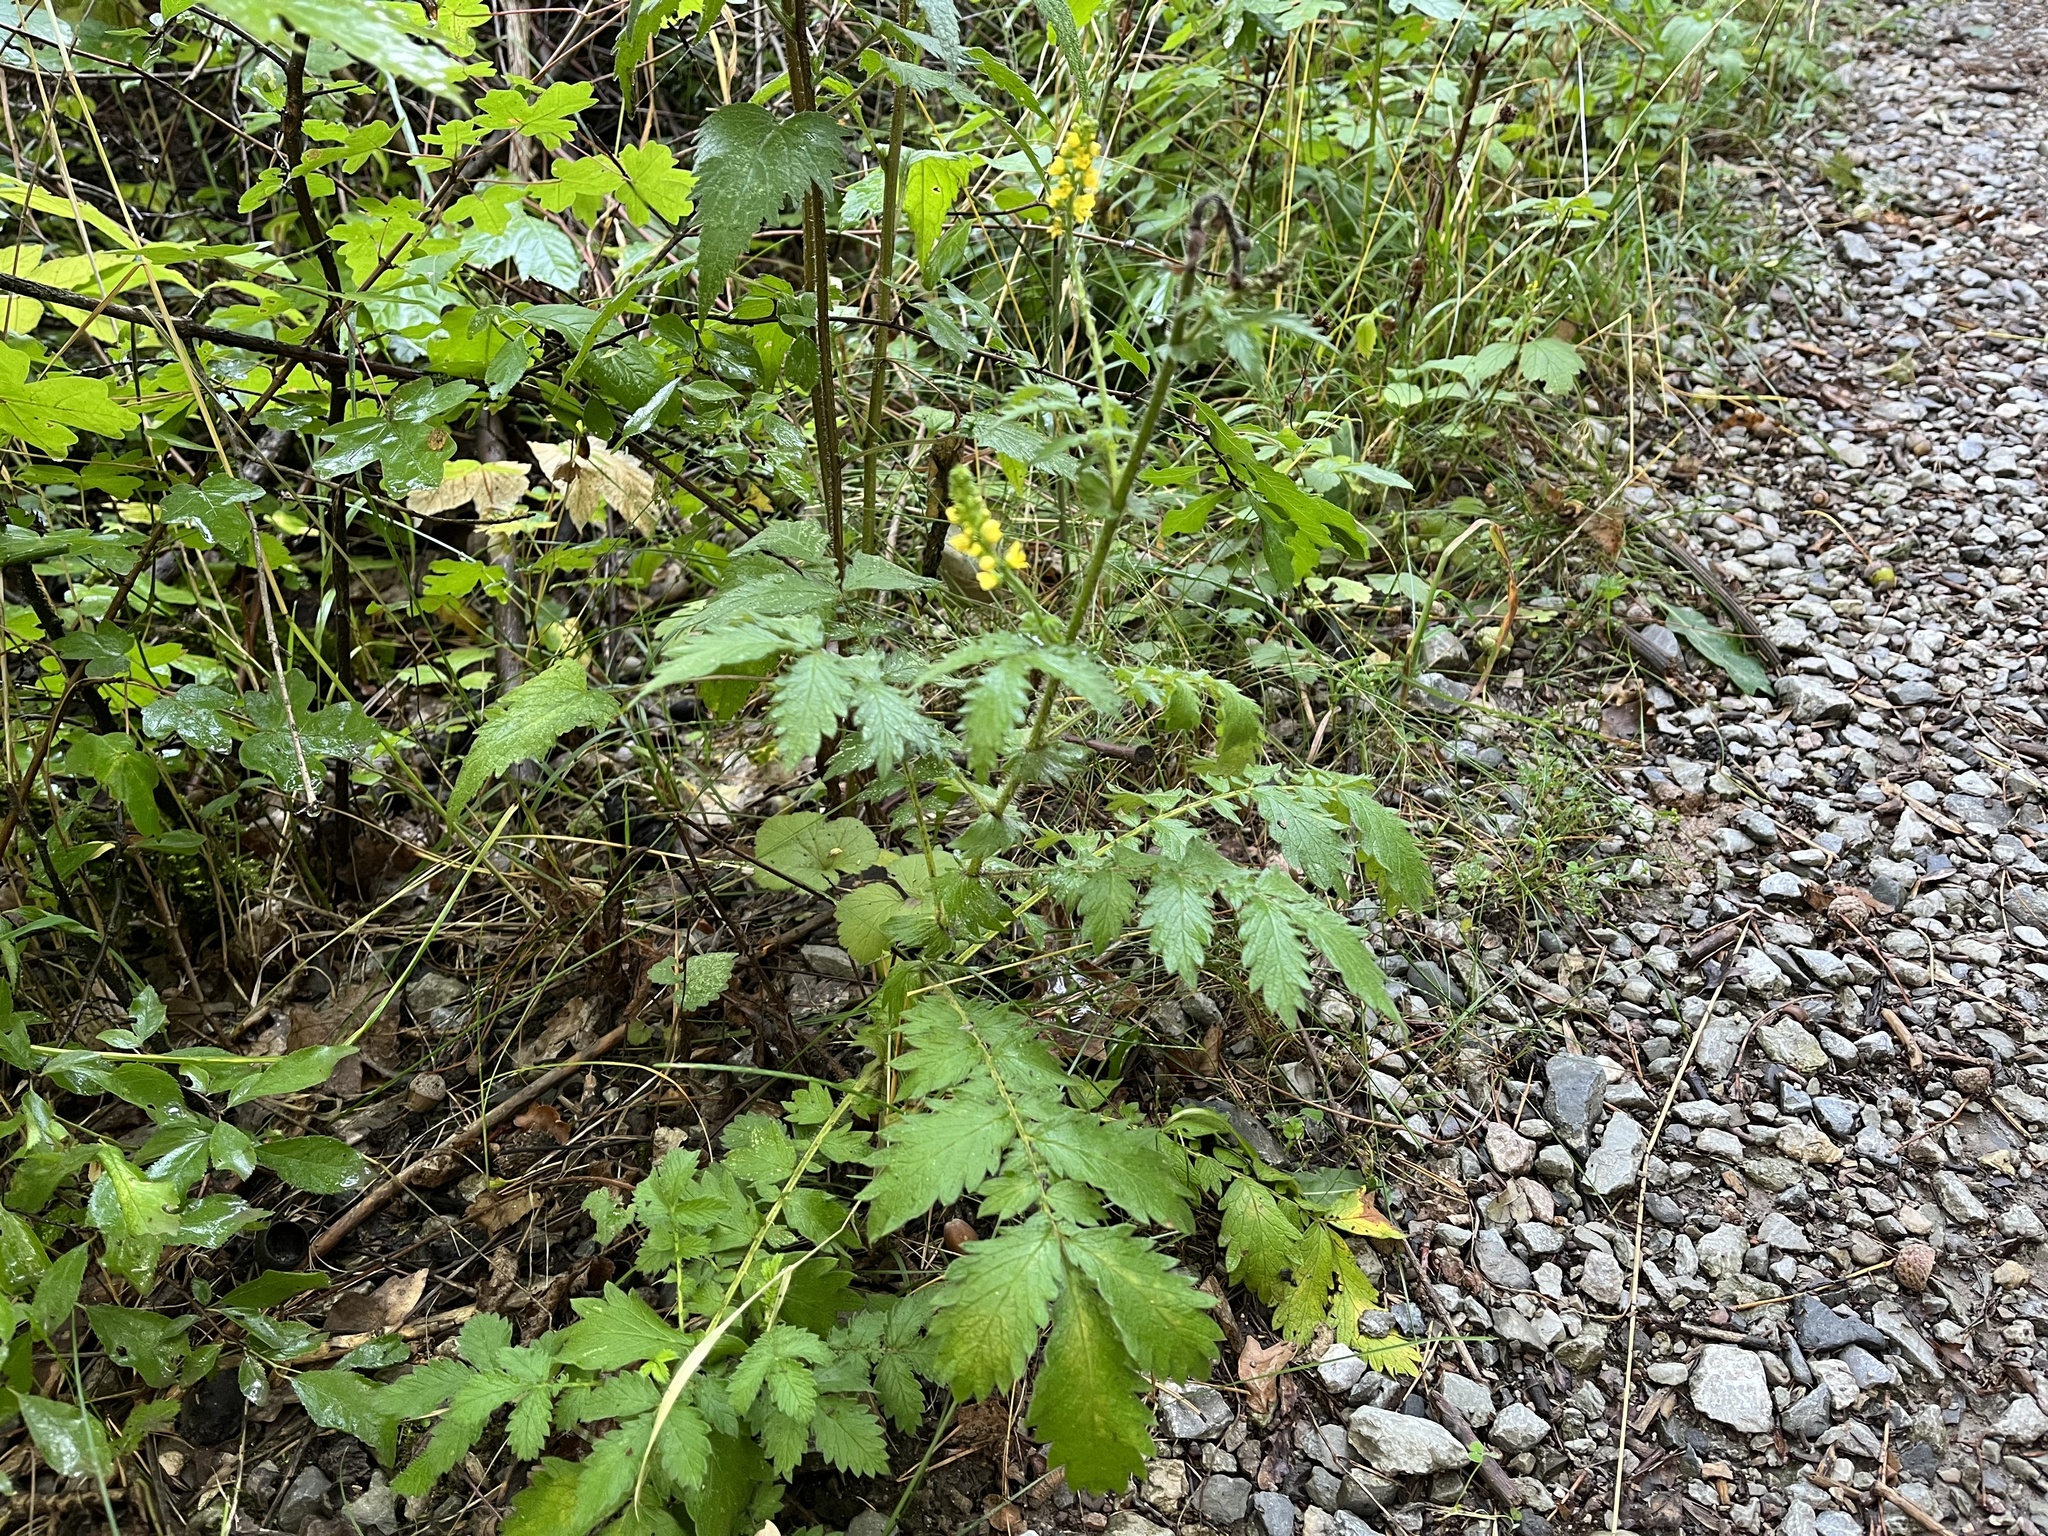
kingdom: Plantae
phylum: Tracheophyta
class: Magnoliopsida
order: Rosales
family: Rosaceae
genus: Agrimonia
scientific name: Agrimonia eupatoria
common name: Agrimony
